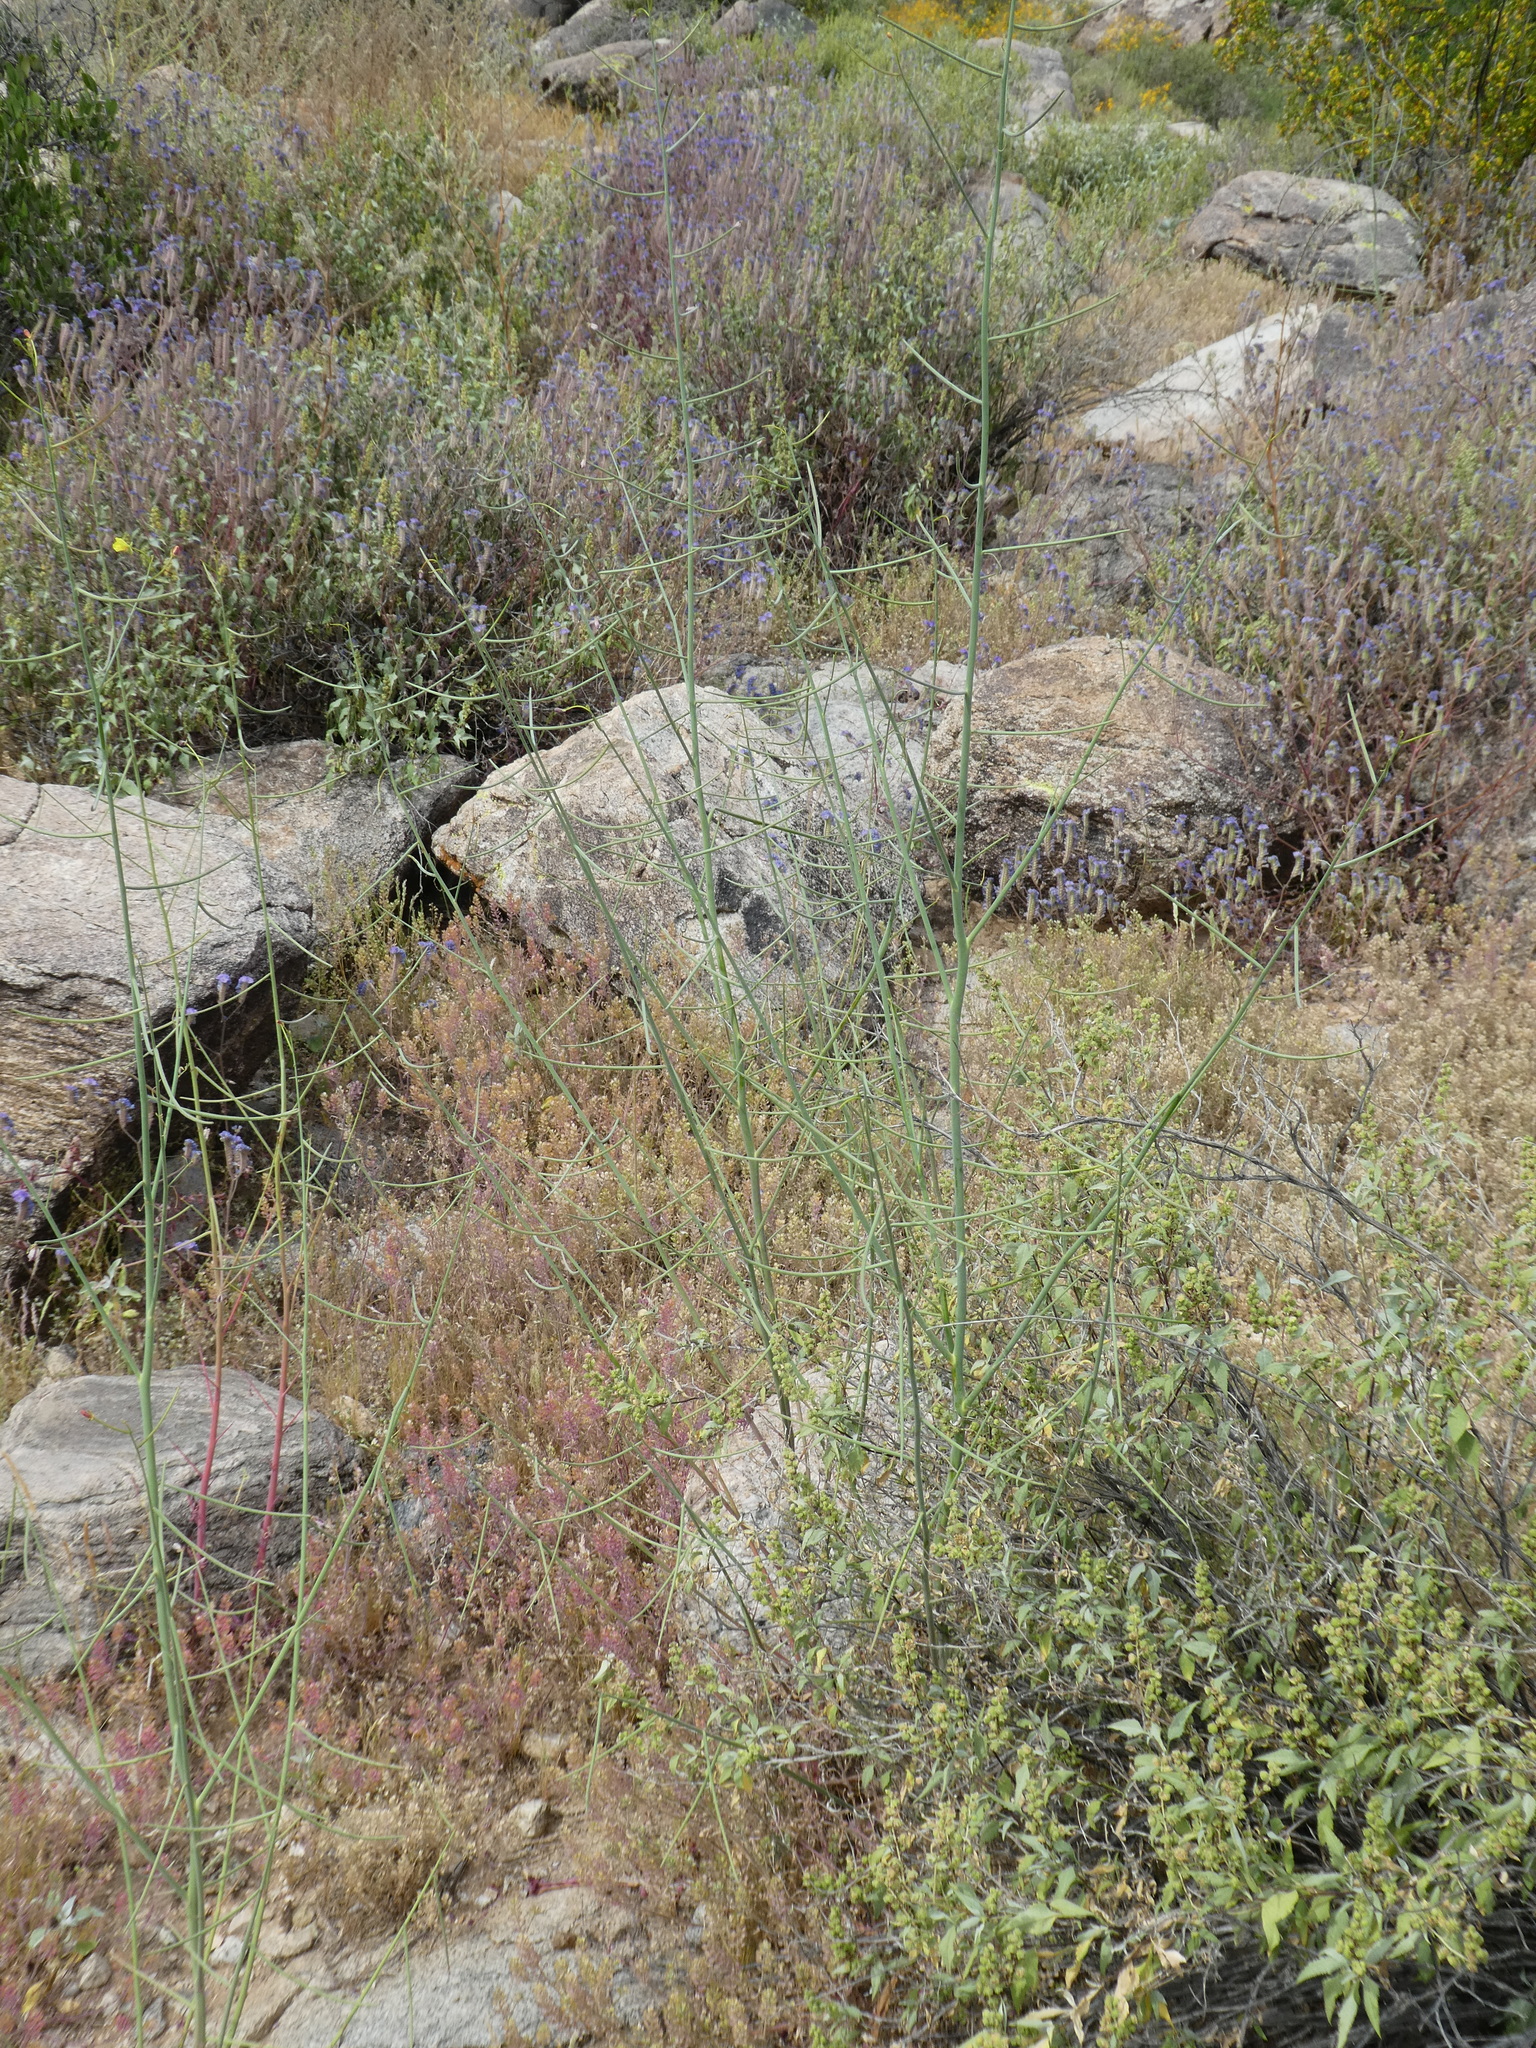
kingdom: Plantae
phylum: Tracheophyta
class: Magnoliopsida
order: Myrtales
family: Onagraceae
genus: Eulobus
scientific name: Eulobus californicus
